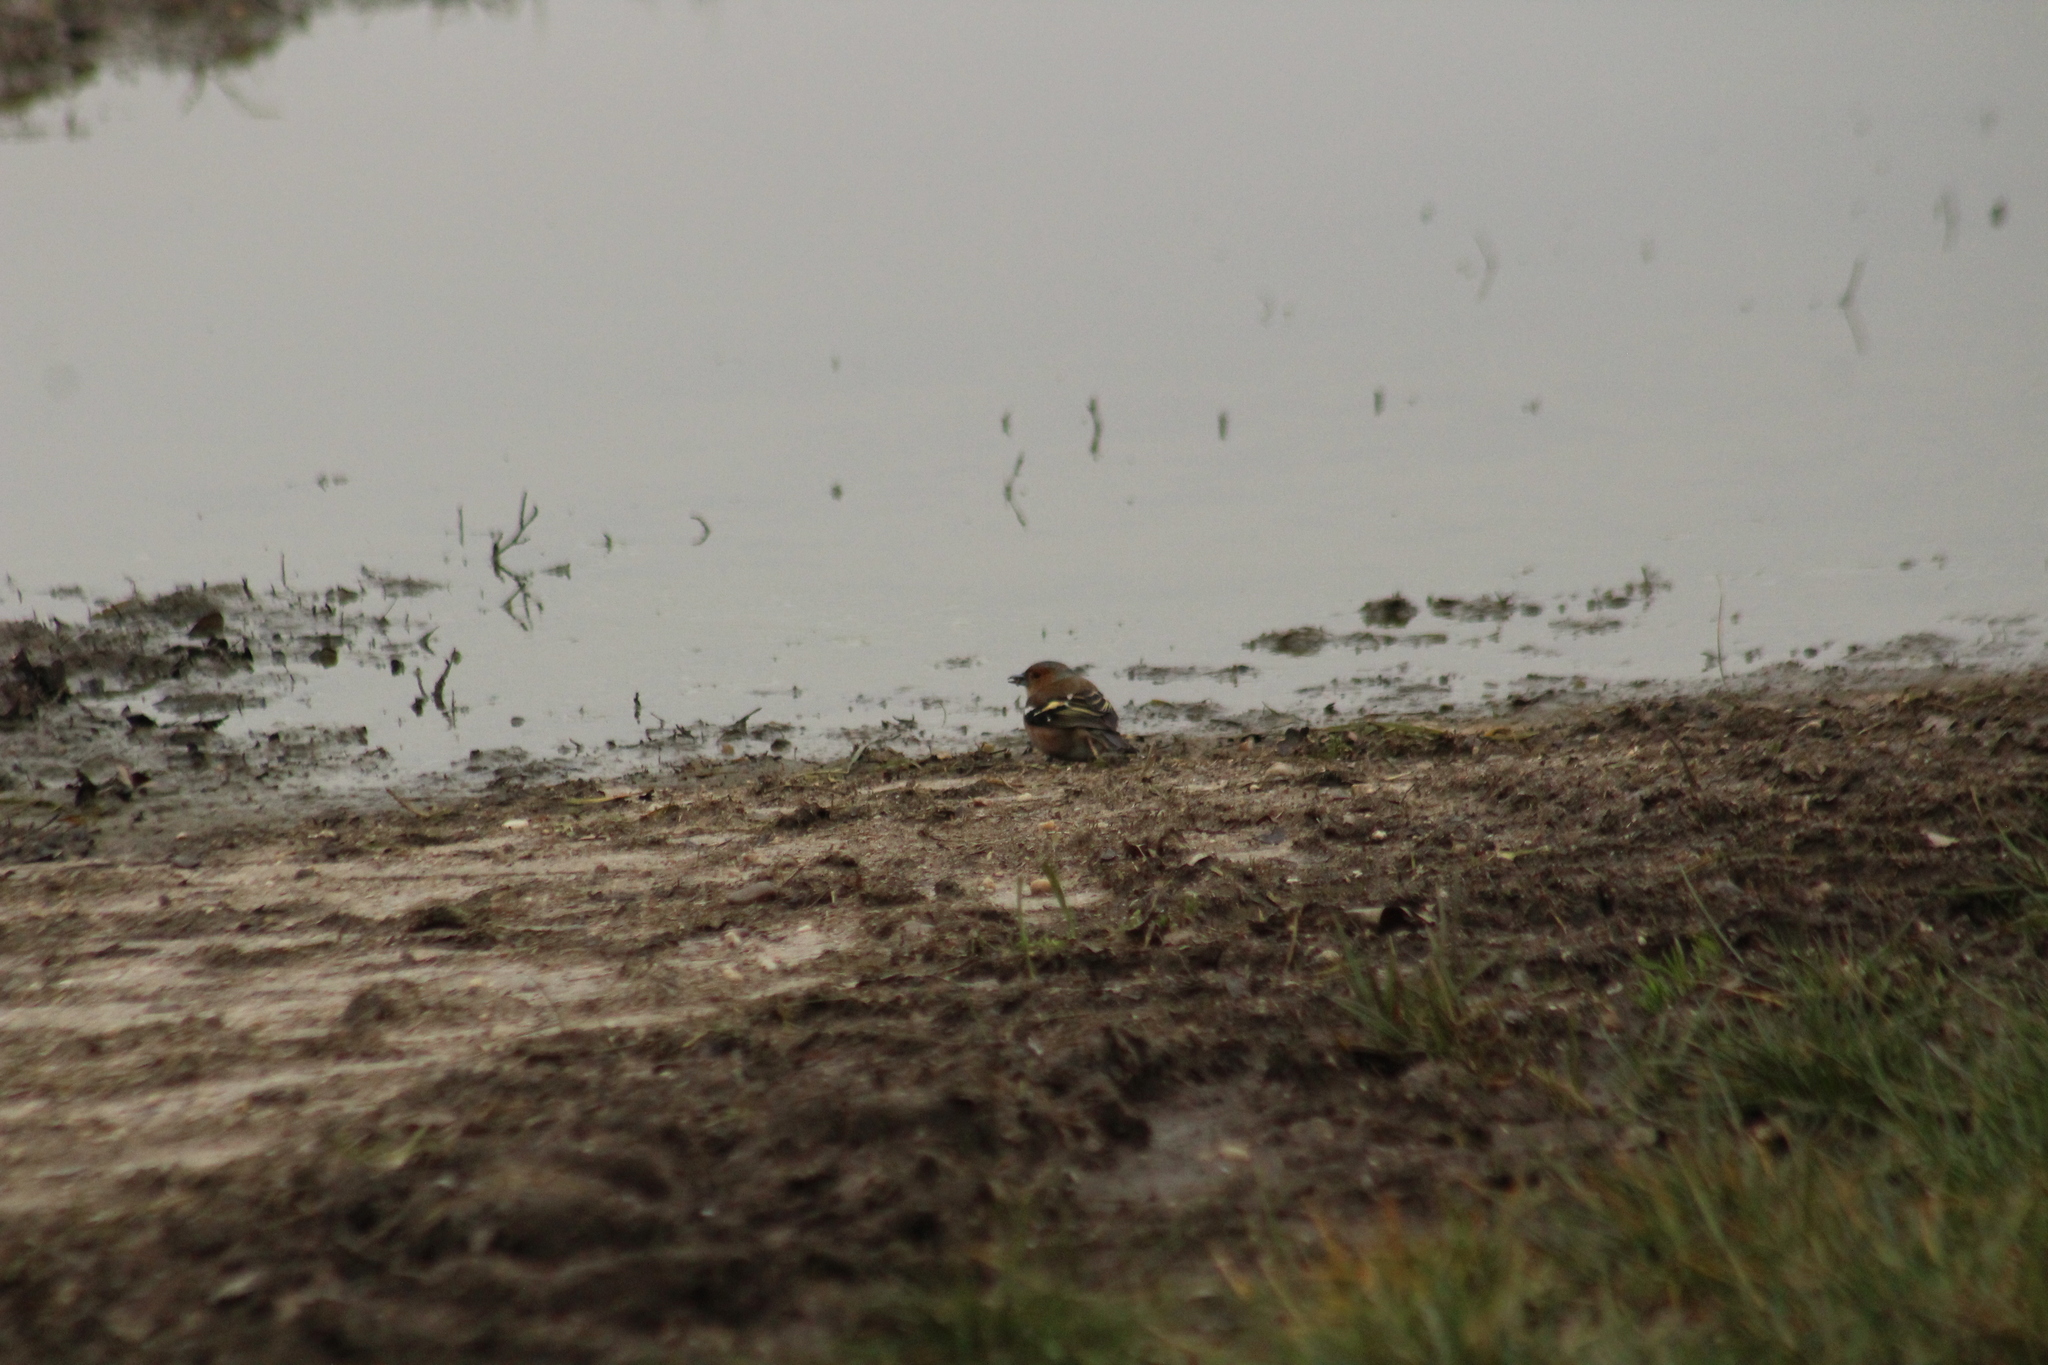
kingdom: Animalia
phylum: Chordata
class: Aves
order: Passeriformes
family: Fringillidae
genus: Fringilla
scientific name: Fringilla coelebs
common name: Common chaffinch
